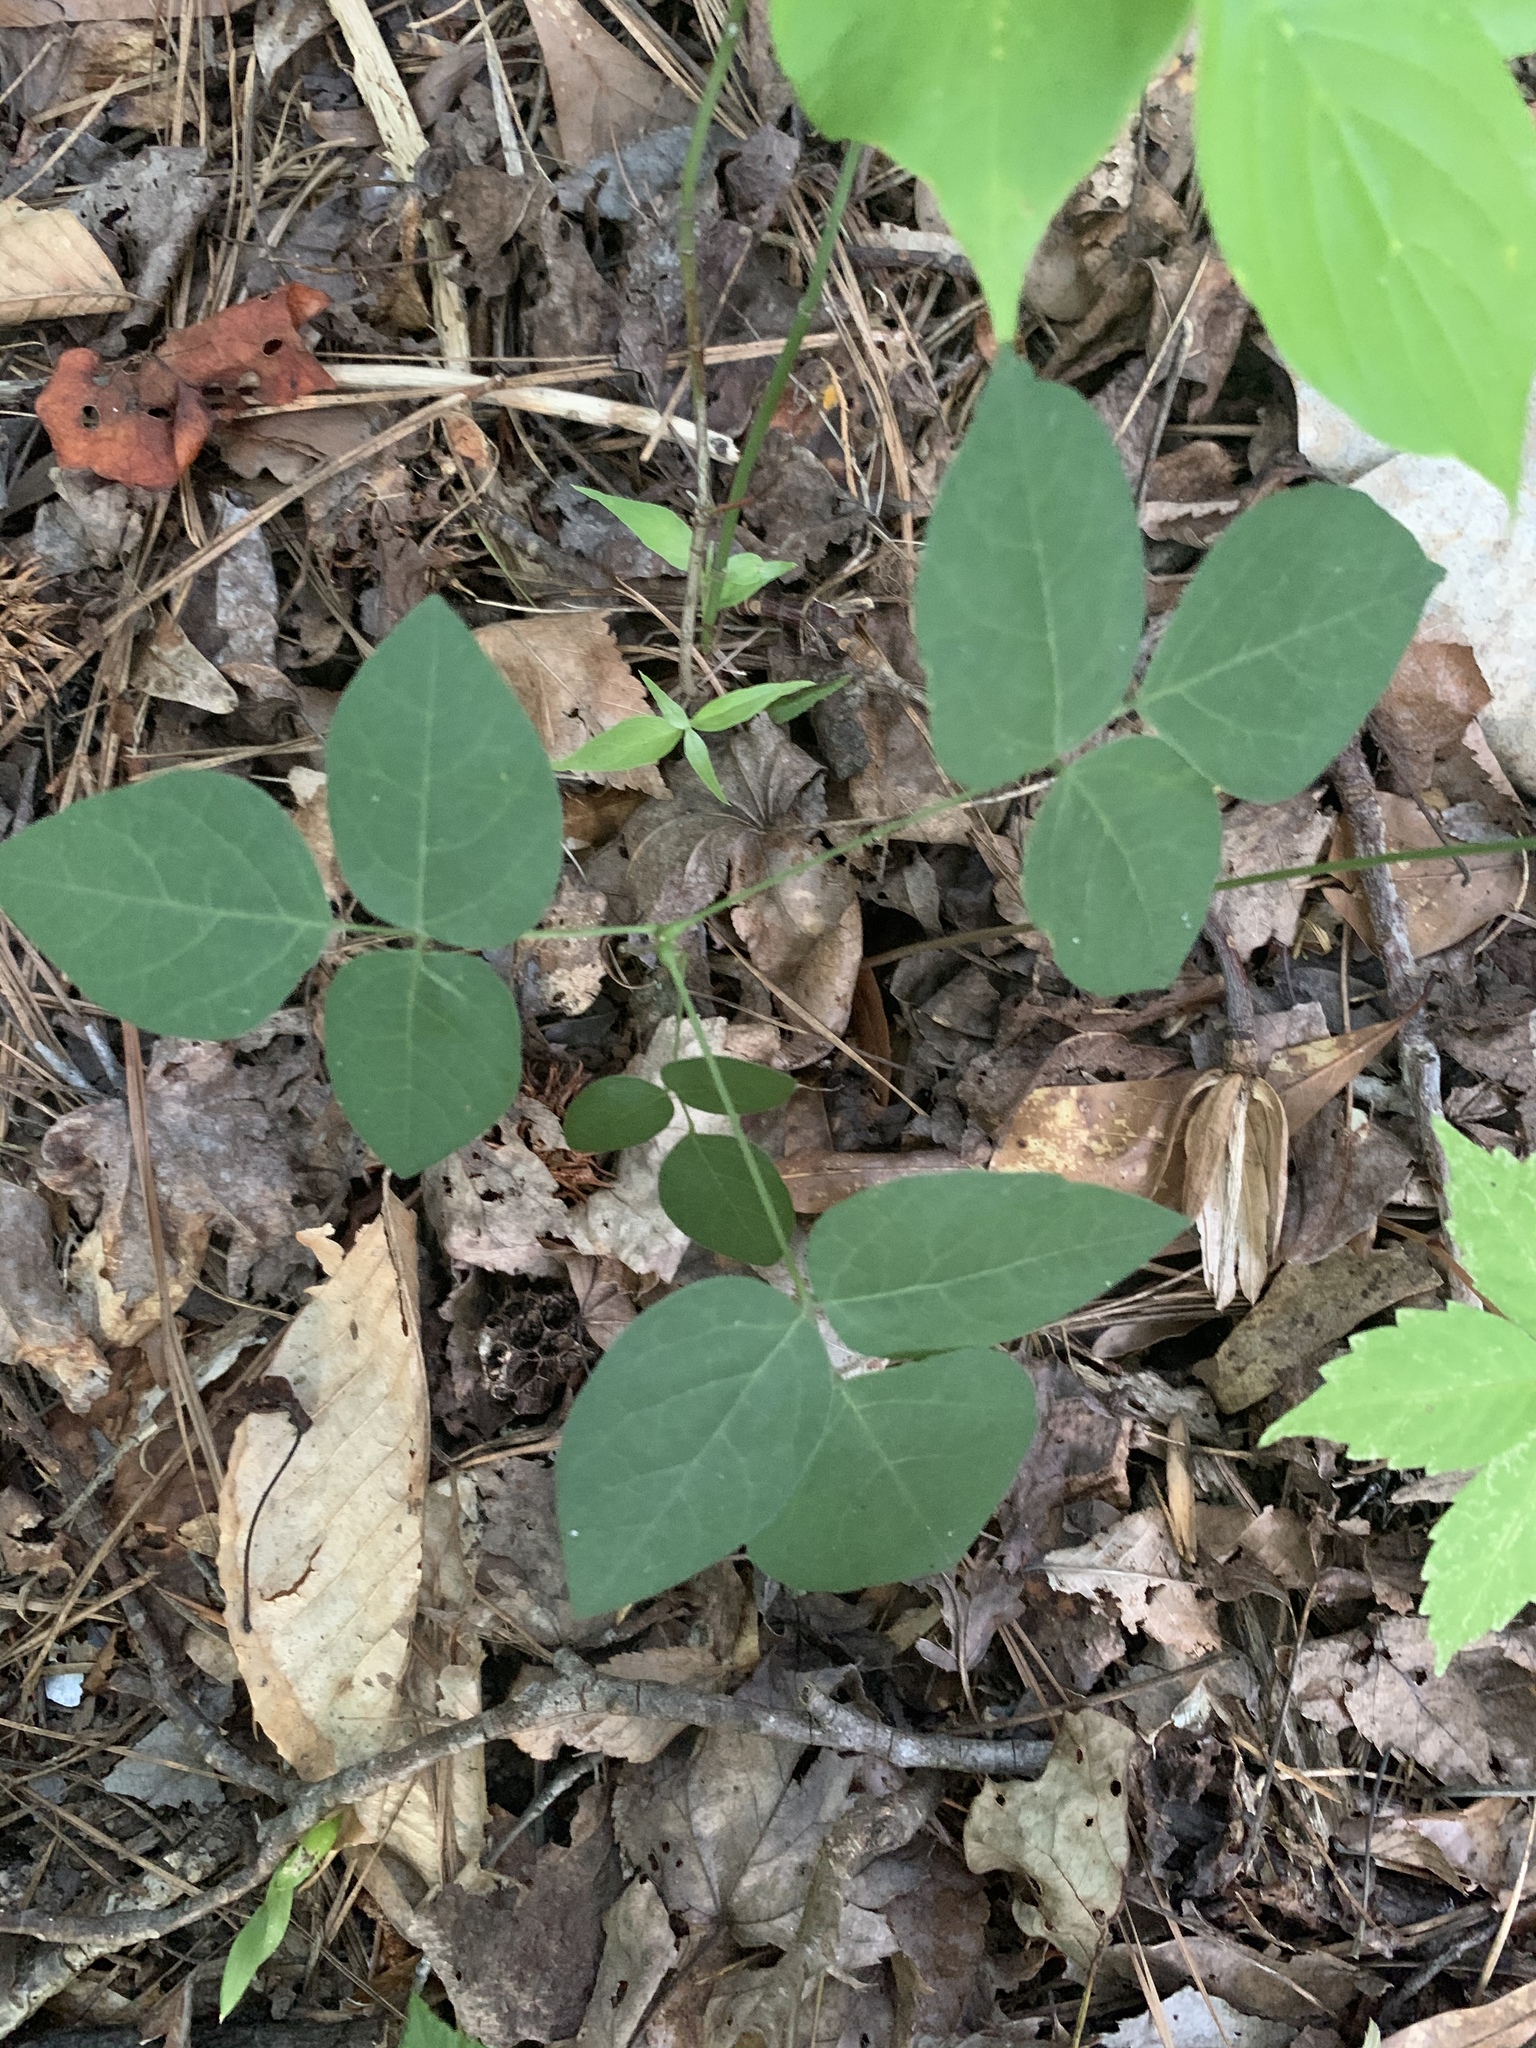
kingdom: Plantae
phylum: Tracheophyta
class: Magnoliopsida
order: Fabales
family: Fabaceae
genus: Hylodesmum
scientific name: Hylodesmum nudiflorum
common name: Bare-stemmed tick-trefoil
